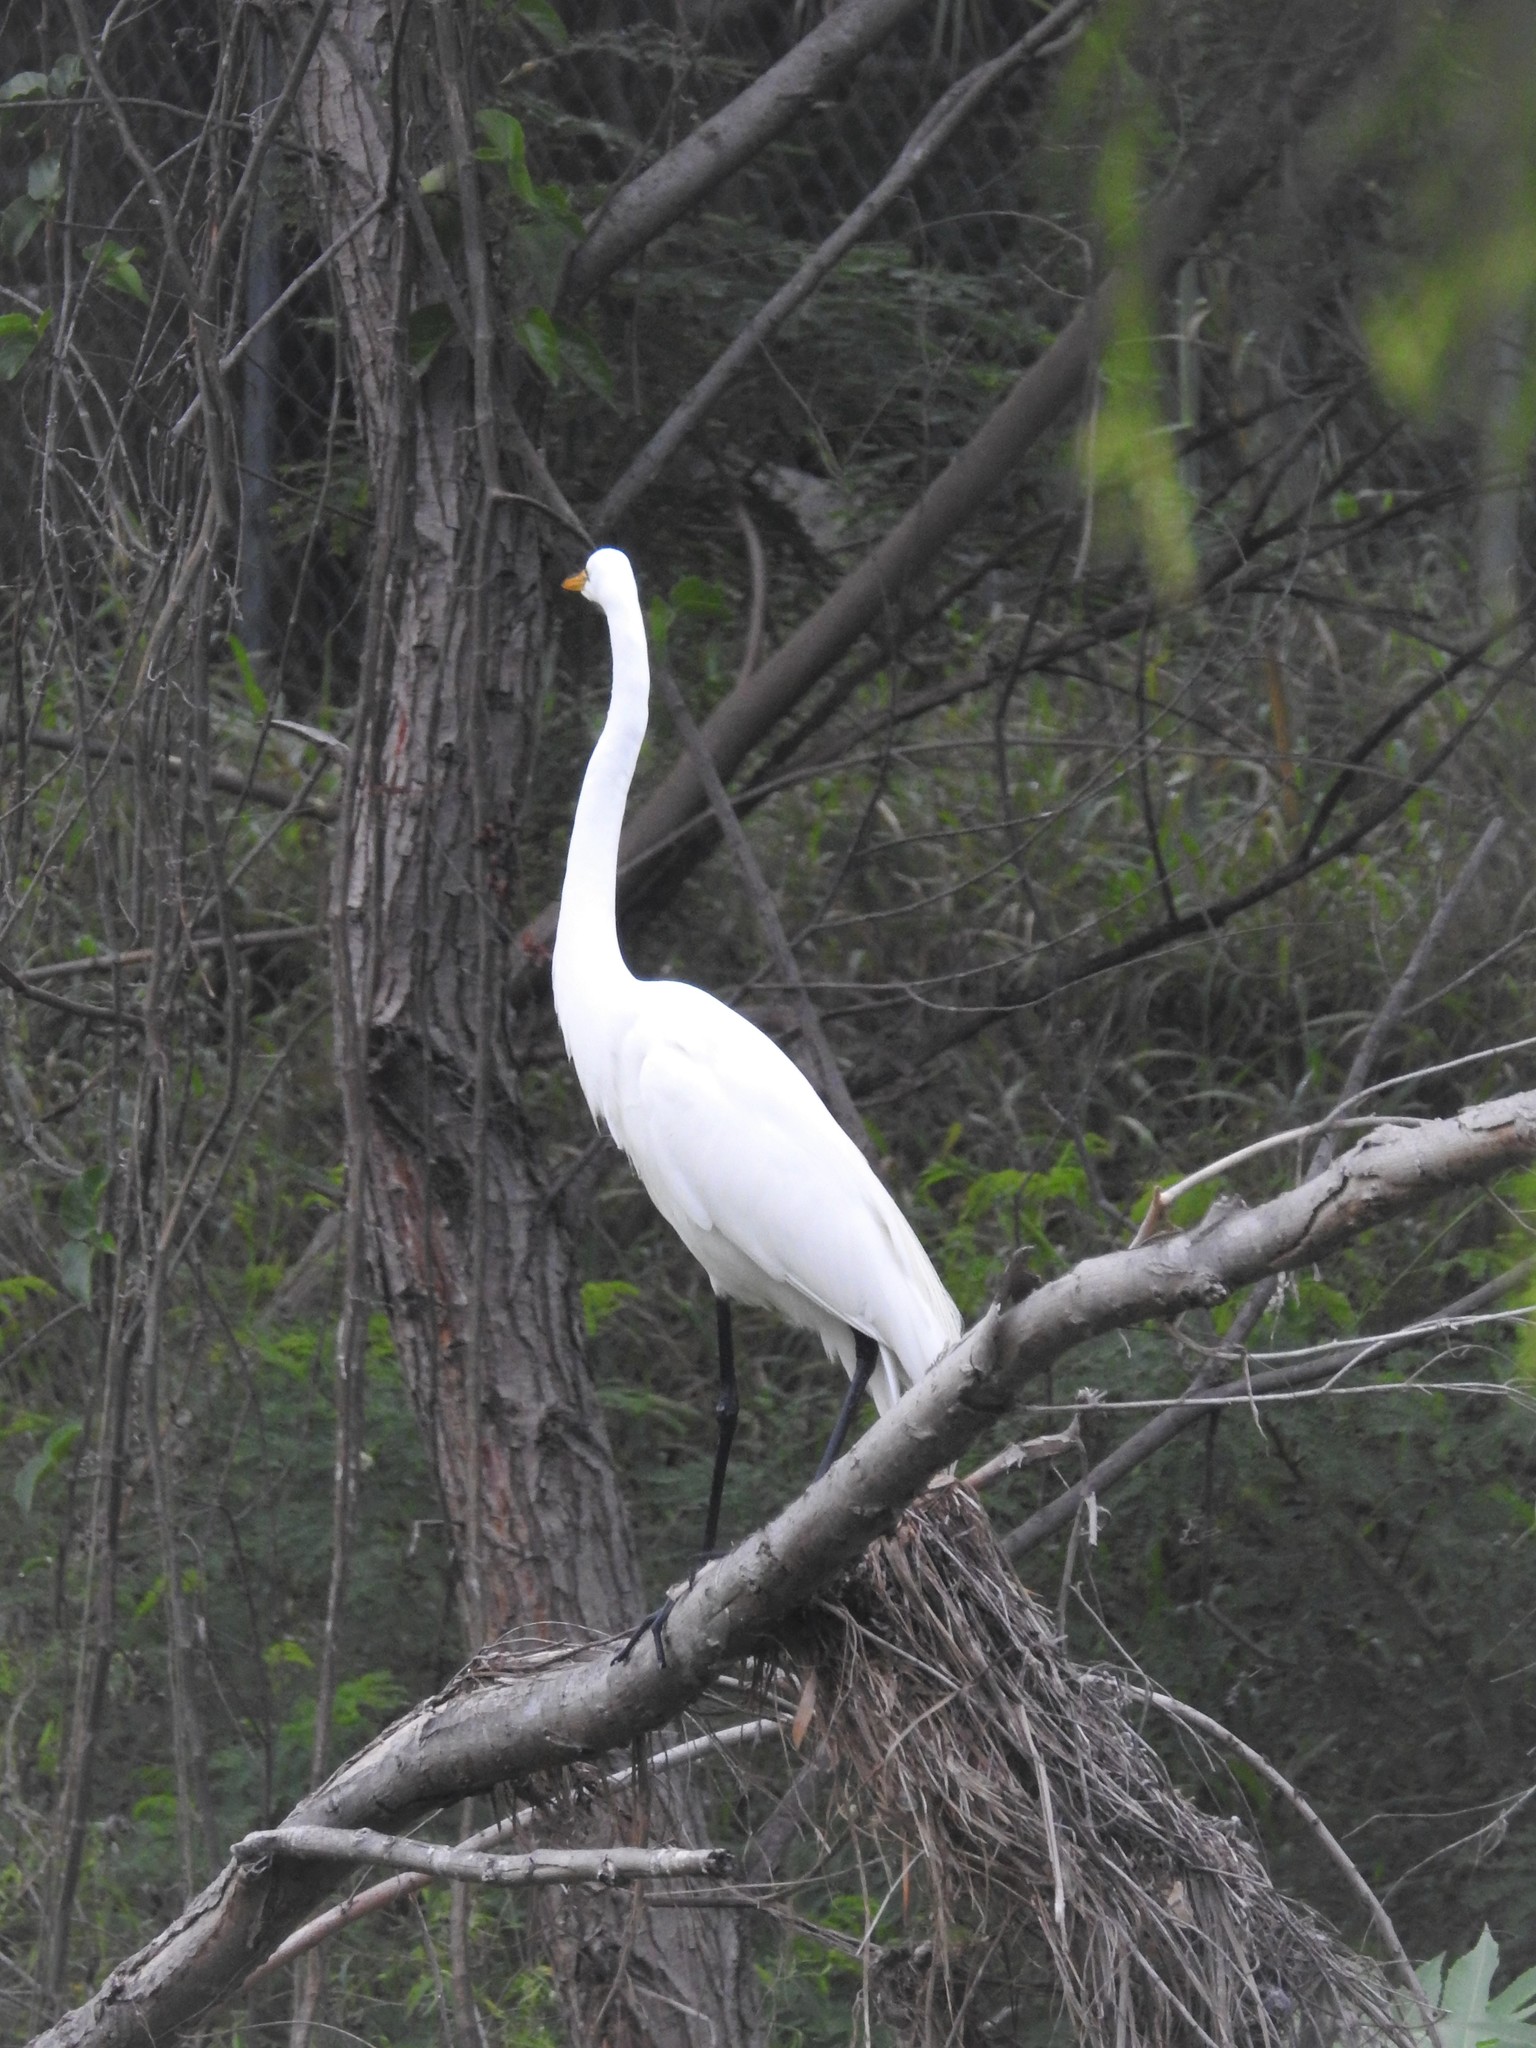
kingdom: Animalia
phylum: Chordata
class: Aves
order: Pelecaniformes
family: Ardeidae
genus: Ardea
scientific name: Ardea alba
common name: Great egret
